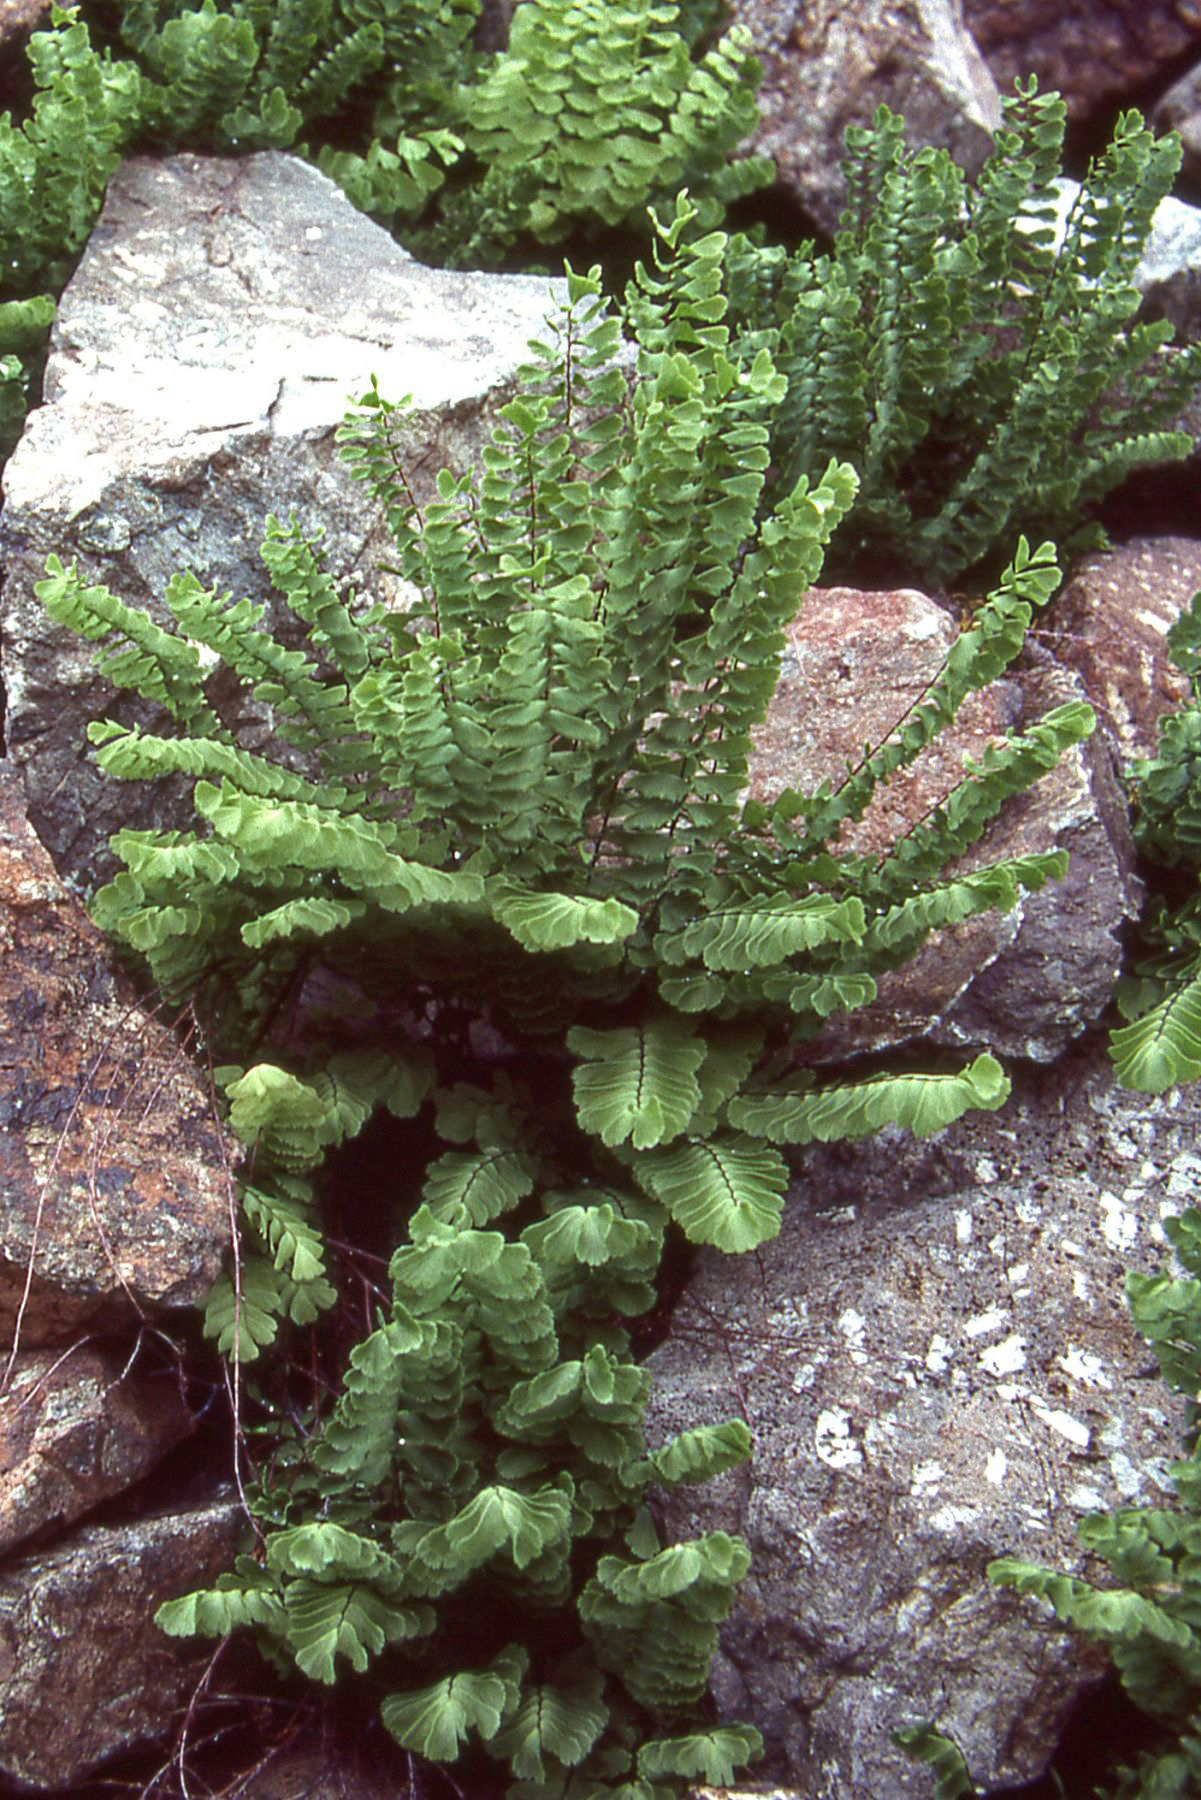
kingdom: Plantae
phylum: Tracheophyta
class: Polypodiopsida
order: Polypodiales
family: Pteridaceae
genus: Adiantum
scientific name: Adiantum aleuticum
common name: Aleutian maidenhair fern
